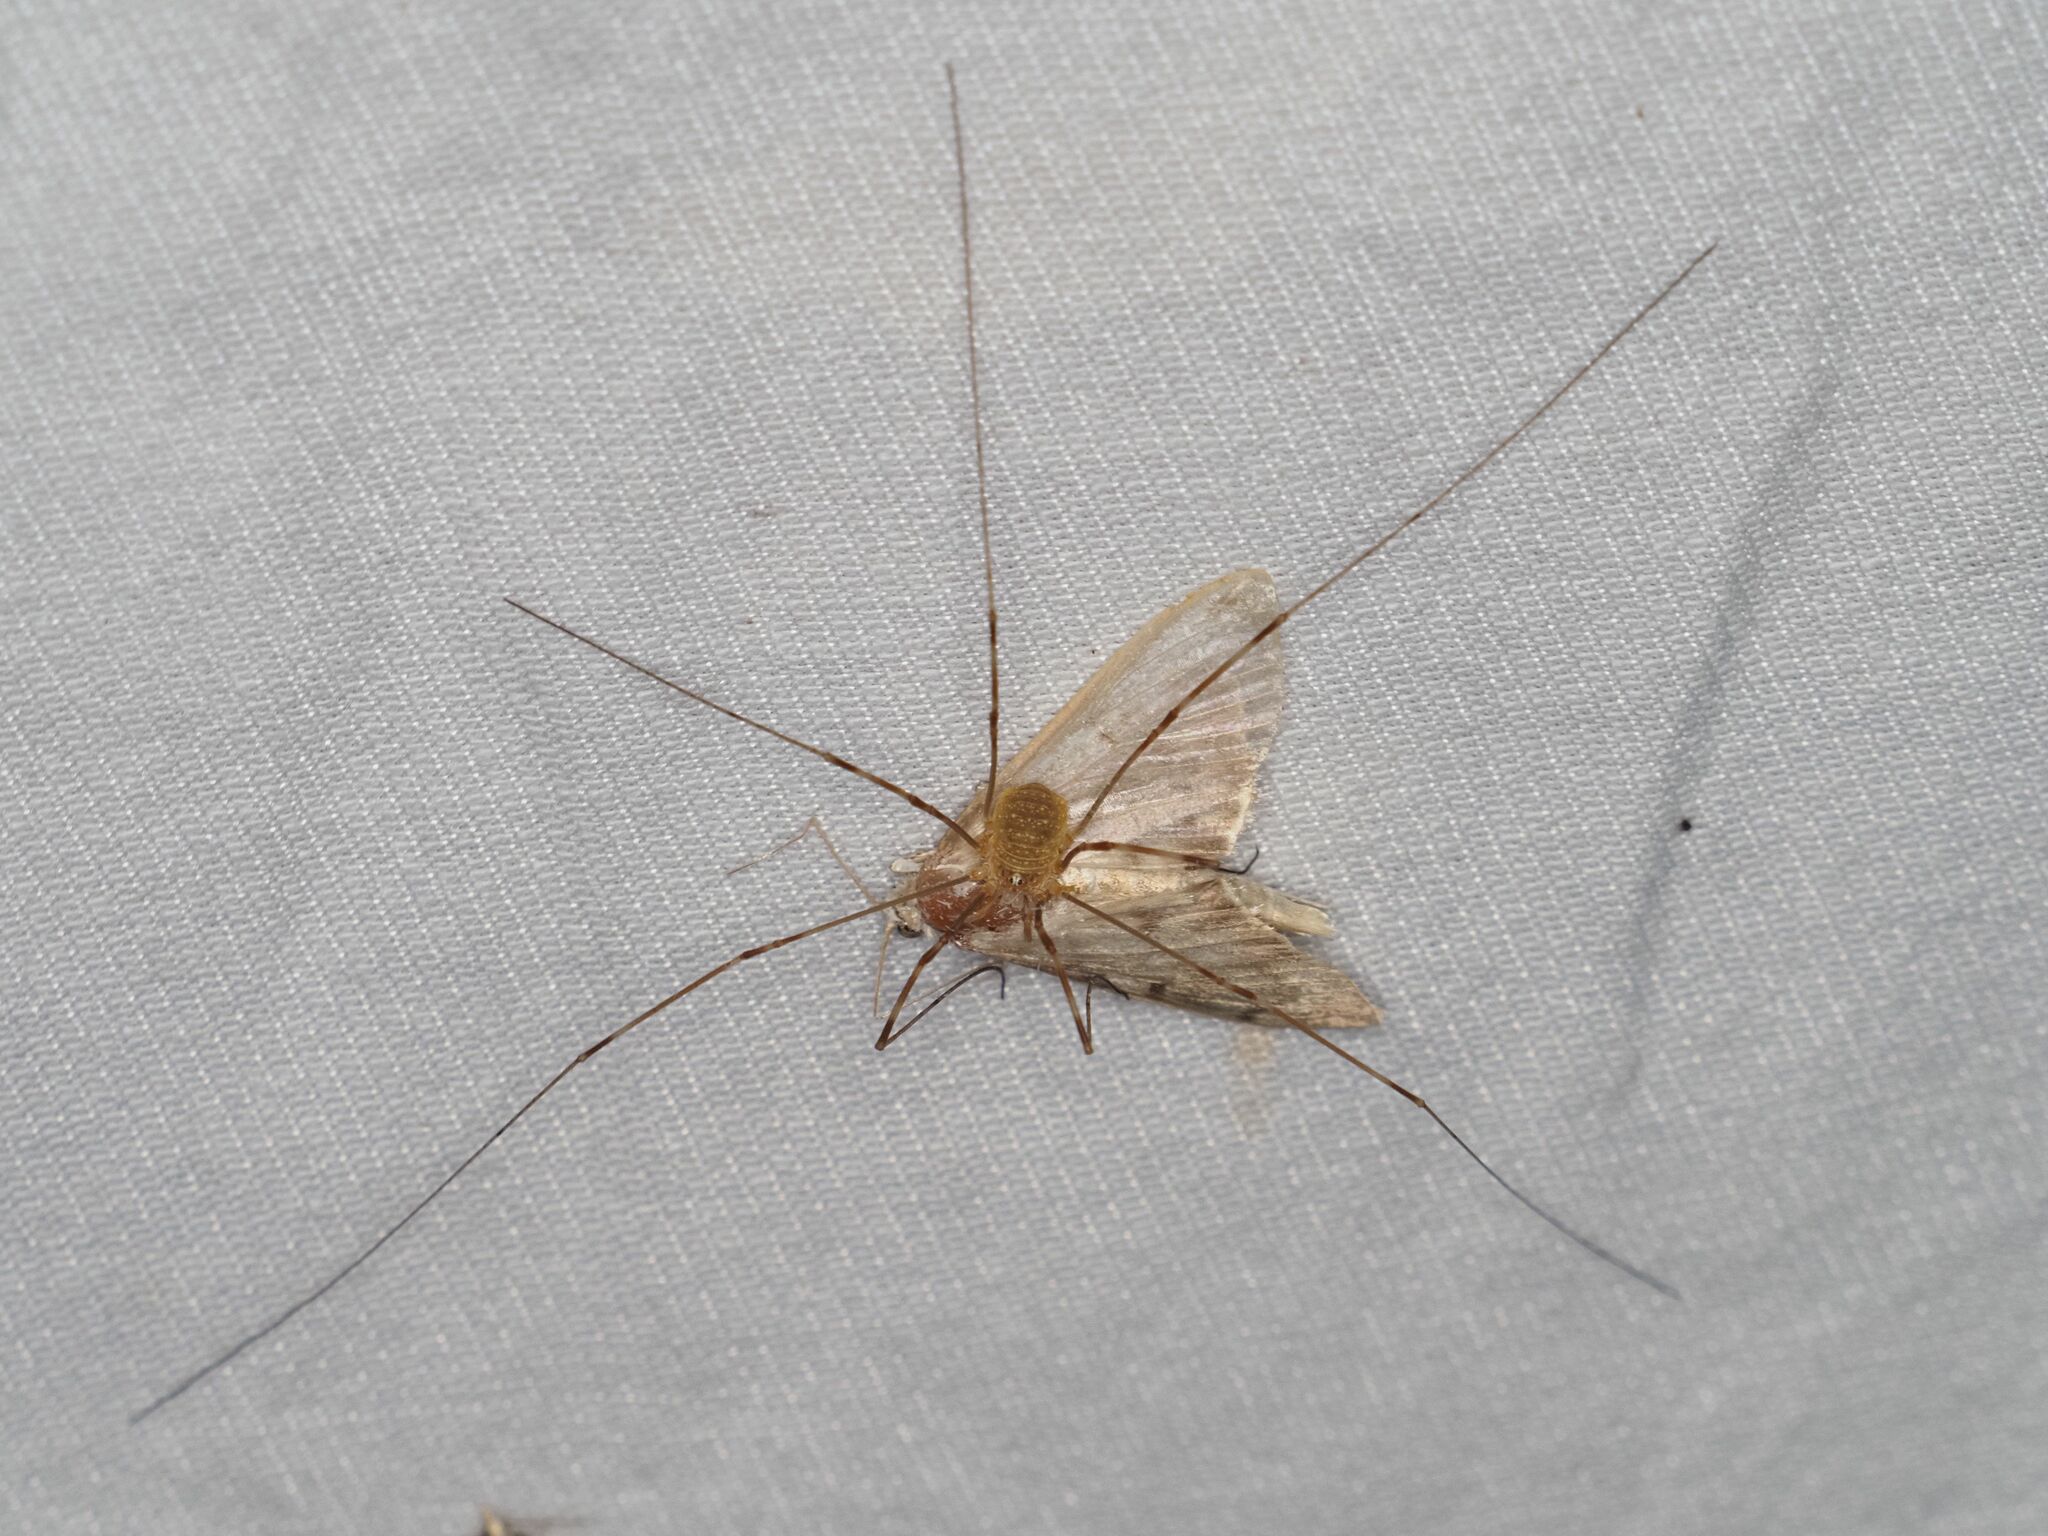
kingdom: Animalia
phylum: Arthropoda
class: Arachnida
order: Opiliones
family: Phalangiidae
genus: Opilio
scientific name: Opilio canestrinii
